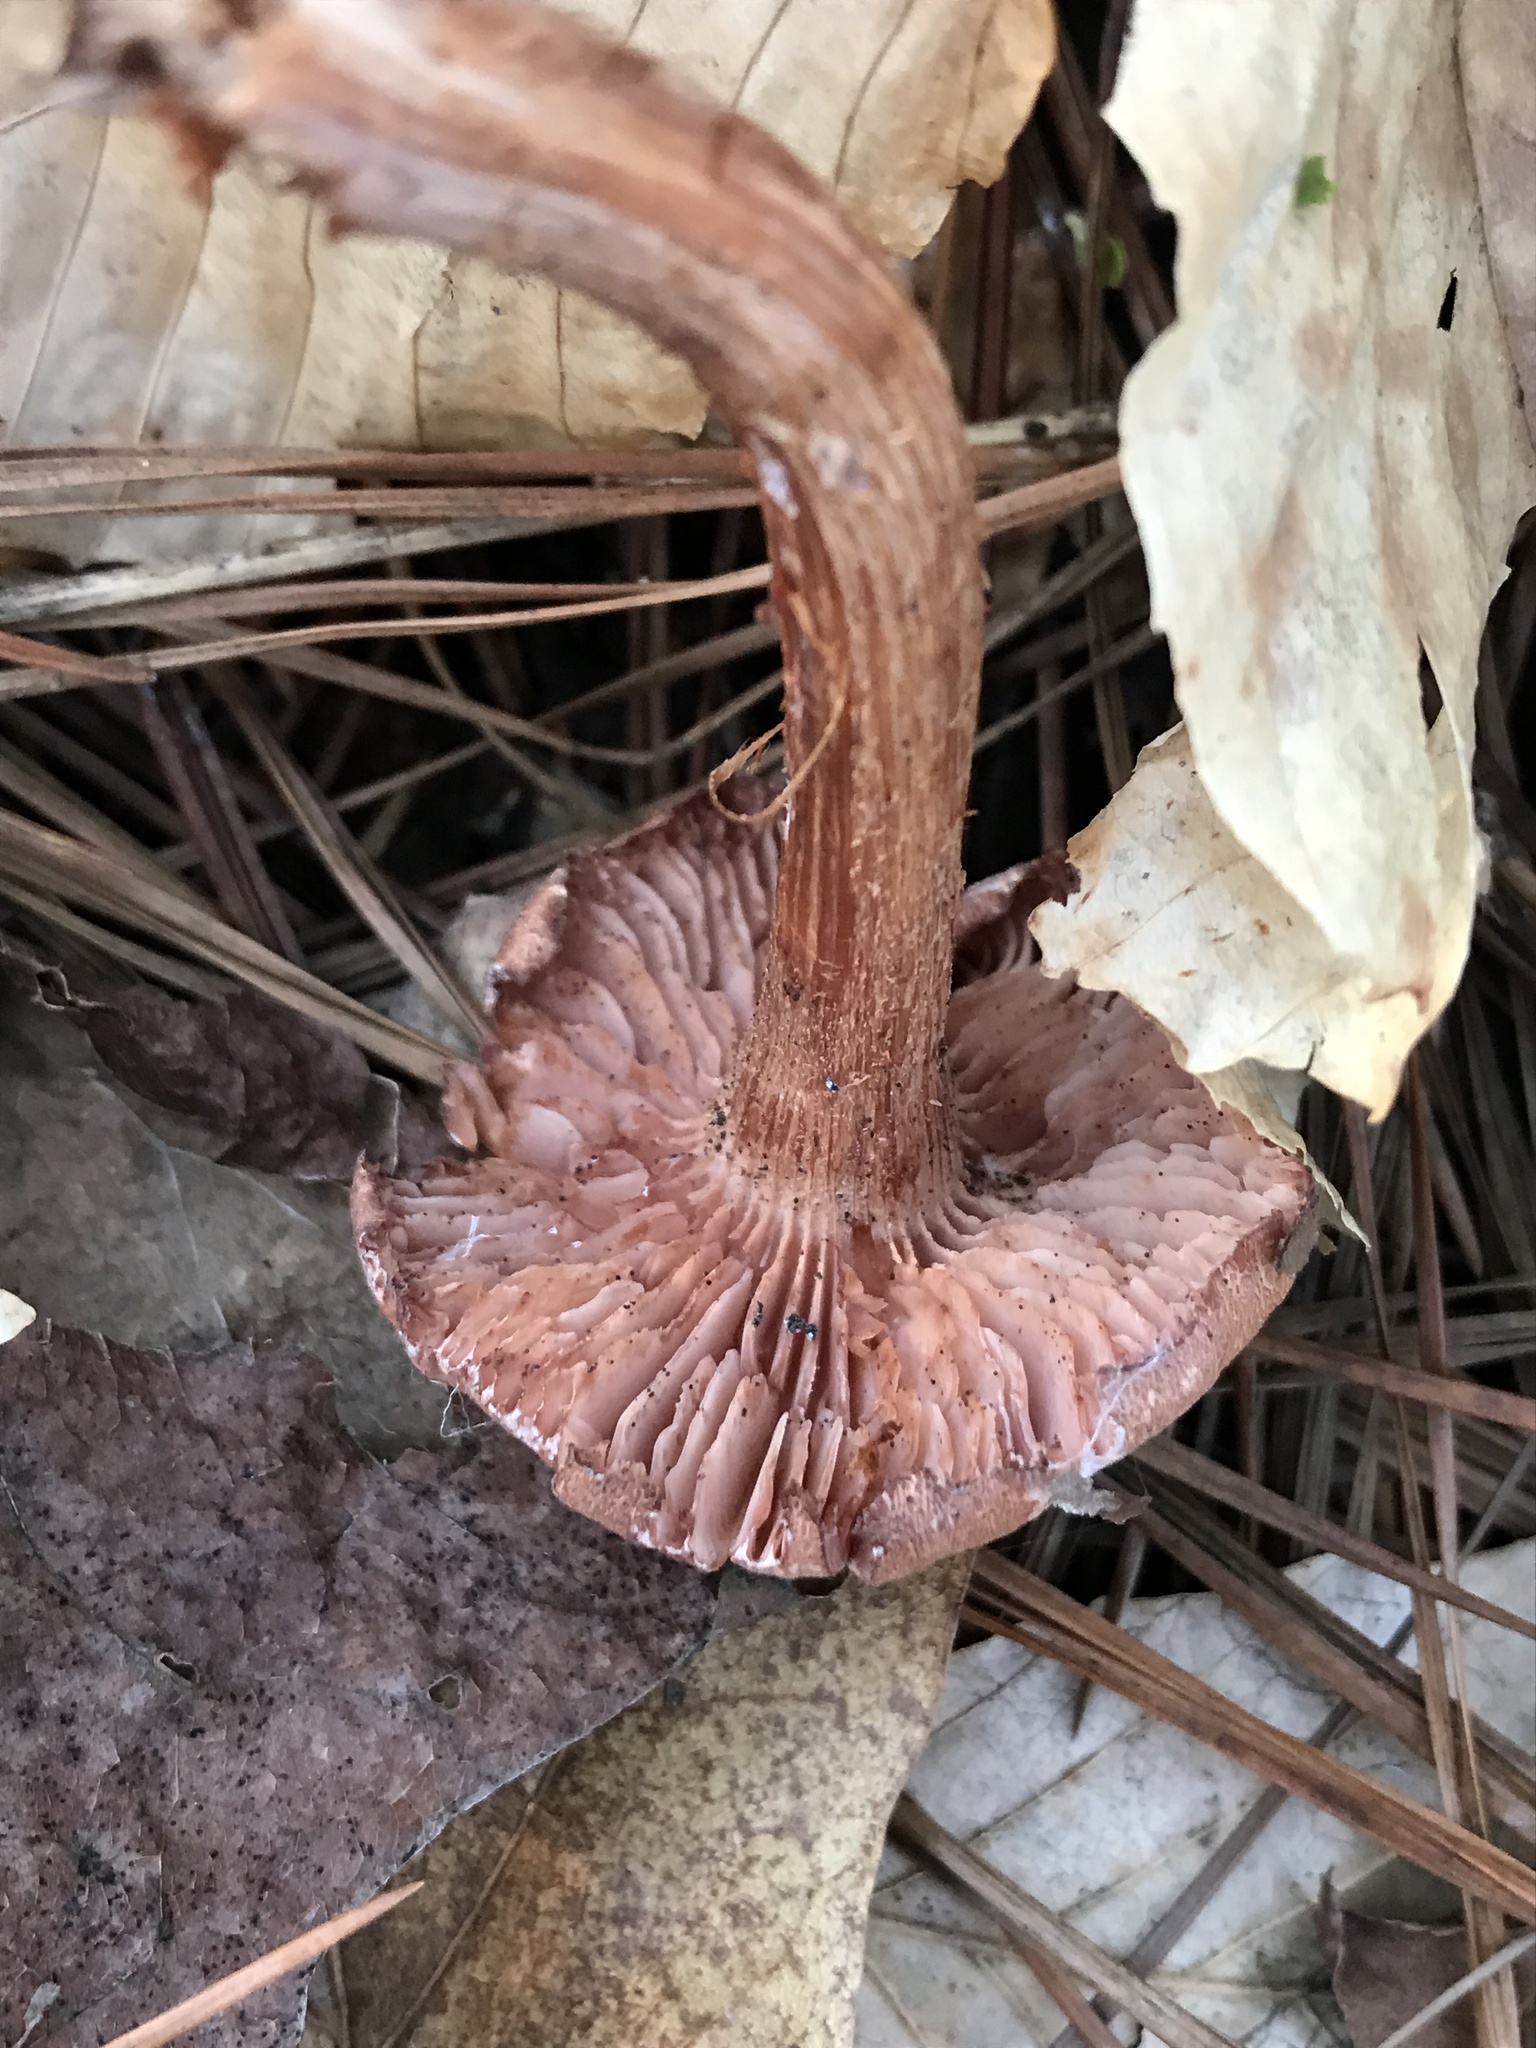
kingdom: Fungi
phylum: Basidiomycota
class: Agaricomycetes
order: Agaricales
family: Hydnangiaceae
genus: Laccaria
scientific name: Laccaria laccata
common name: Deceiver
